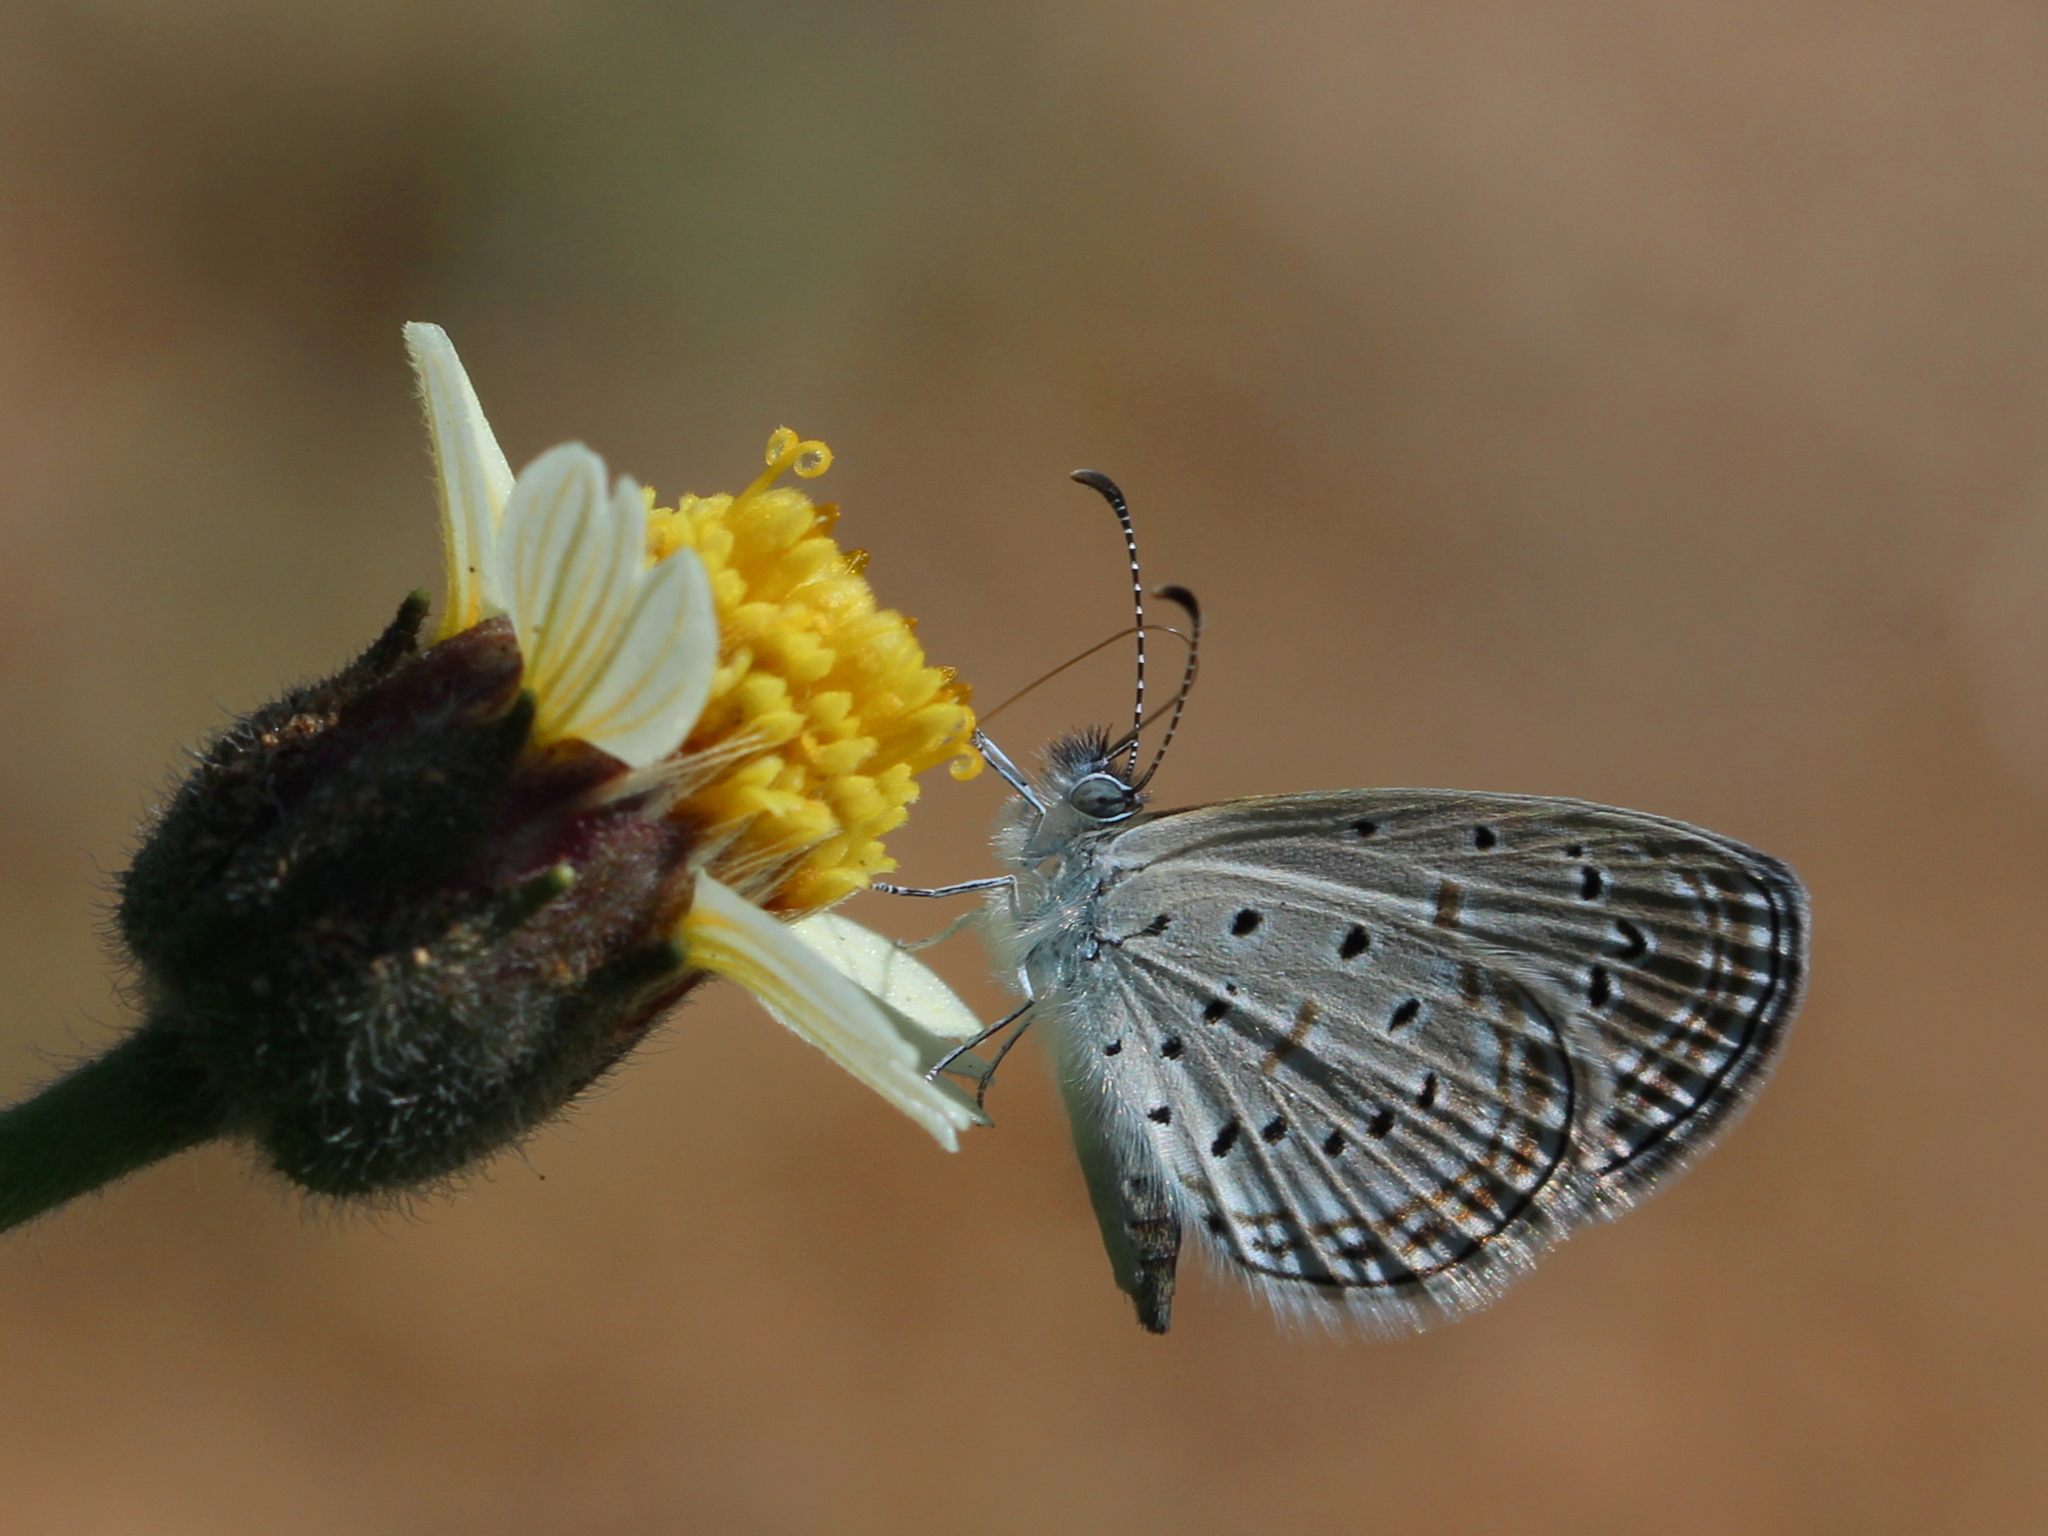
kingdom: Animalia
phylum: Arthropoda
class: Insecta
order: Lepidoptera
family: Lycaenidae
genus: Zizula
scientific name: Zizula hylax
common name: Gaika blue
